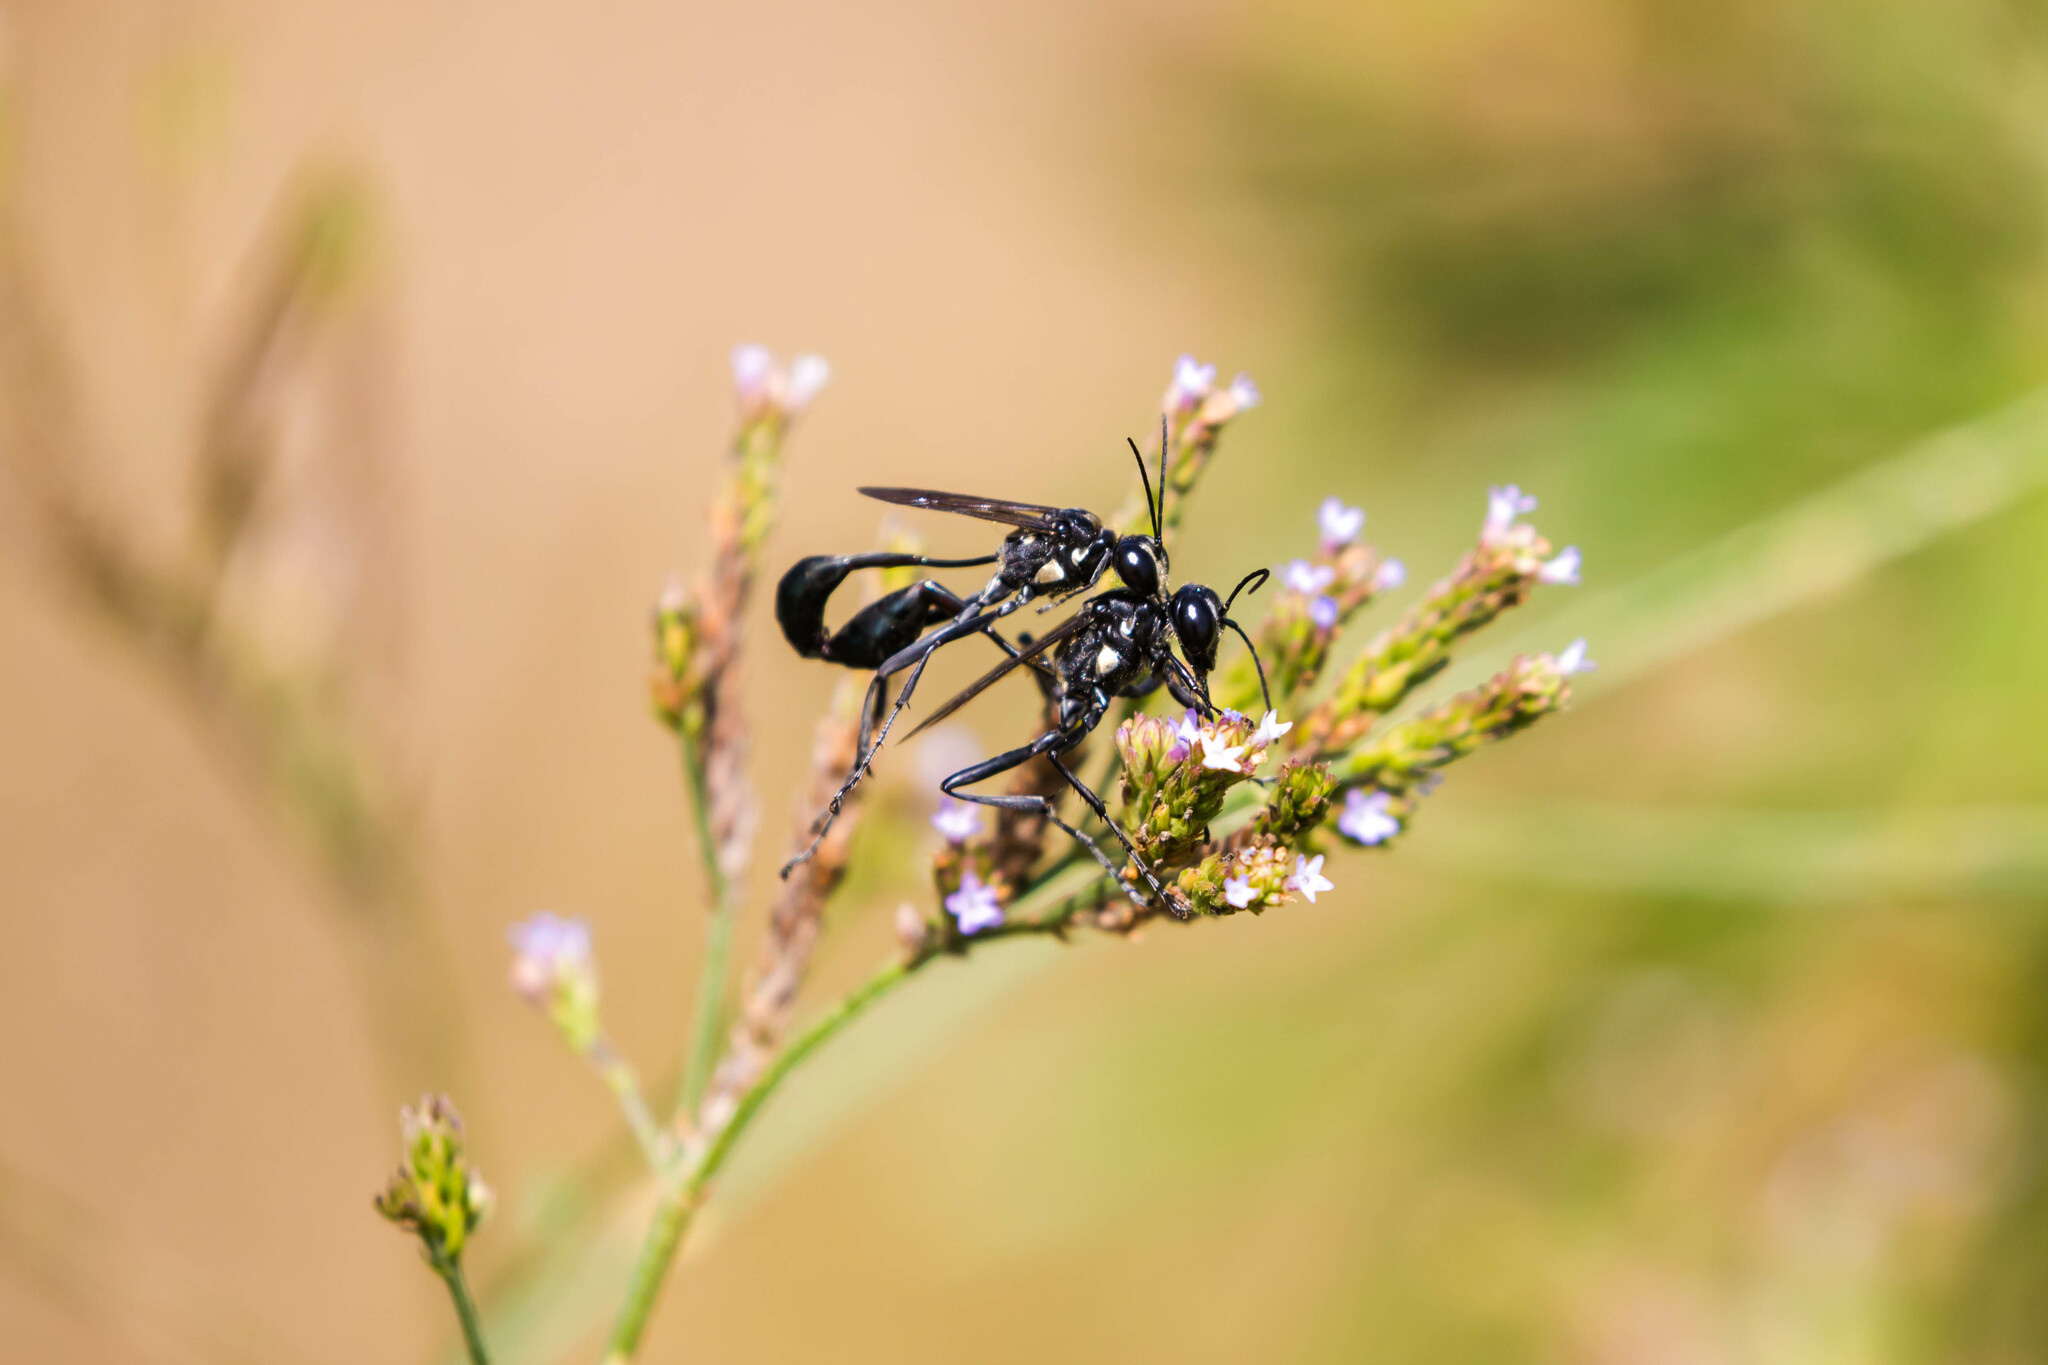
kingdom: Animalia
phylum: Arthropoda
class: Insecta
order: Hymenoptera
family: Sphecidae
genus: Eremnophila
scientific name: Eremnophila aureonotata
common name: Gold-marked thread-waisted wasp
